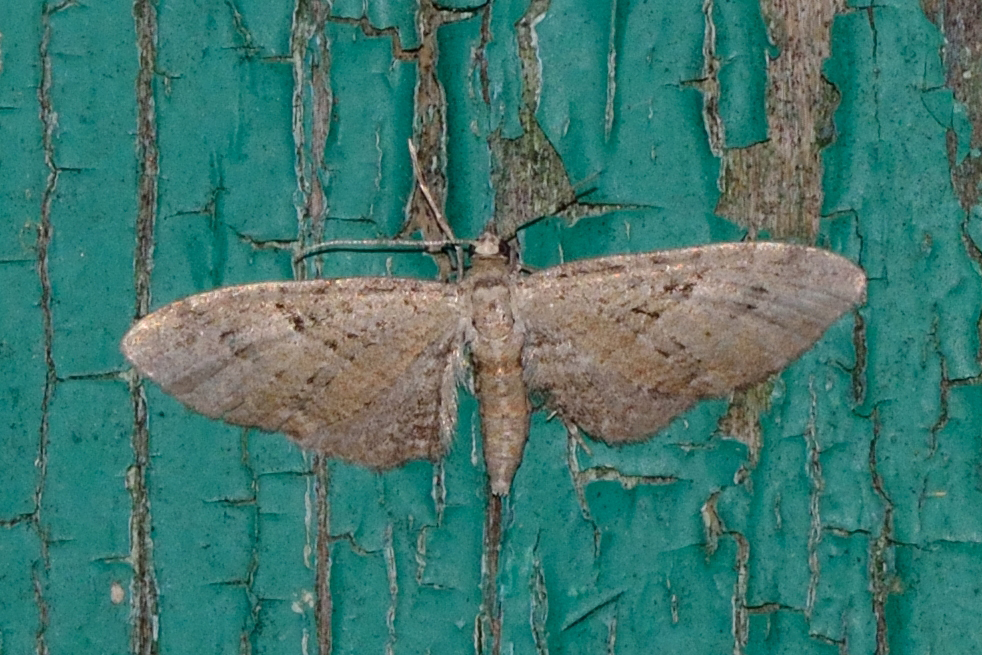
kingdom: Animalia
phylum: Arthropoda
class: Insecta
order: Lepidoptera
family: Geometridae
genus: Eupithecia
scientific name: Eupithecia pusillata
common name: Juniper pug
